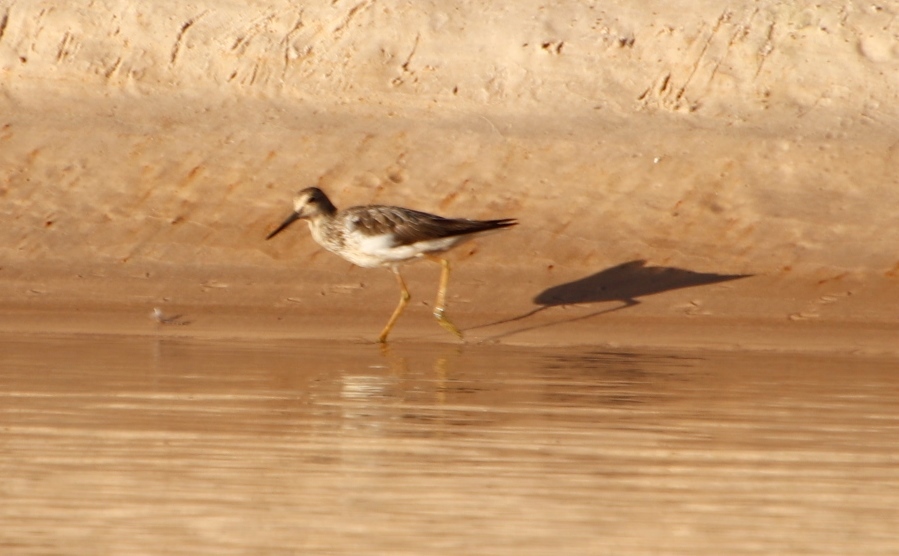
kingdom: Animalia
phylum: Chordata
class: Aves
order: Charadriiformes
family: Scolopacidae
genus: Tringa
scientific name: Tringa nebularia
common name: Common greenshank
